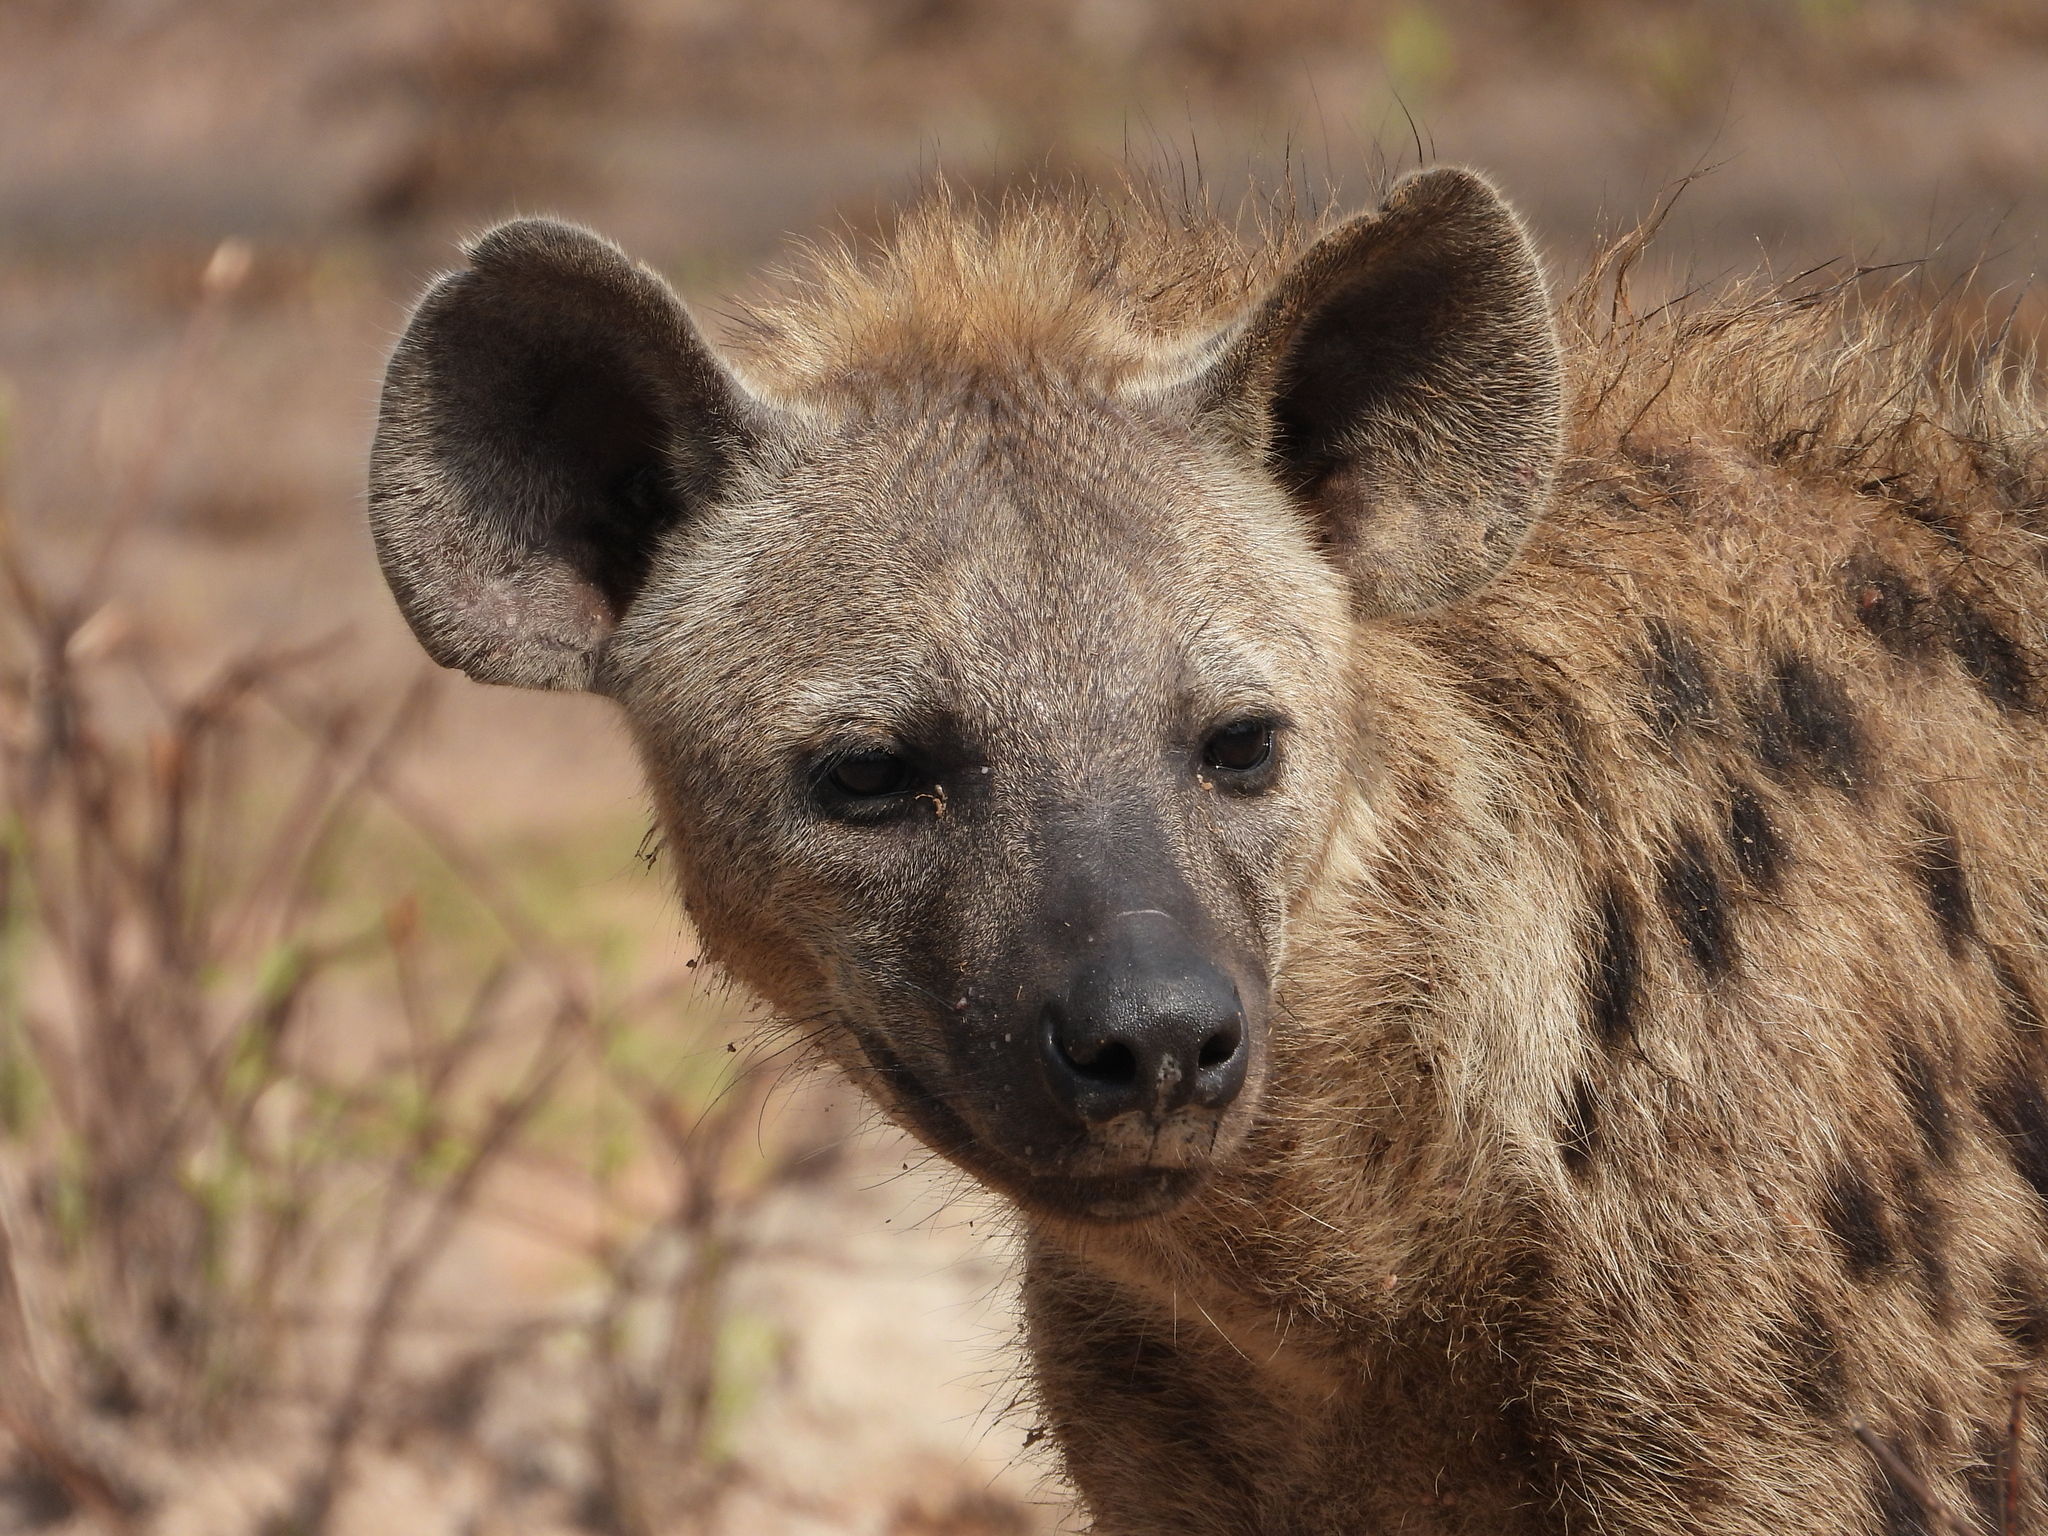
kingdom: Animalia
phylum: Chordata
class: Mammalia
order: Carnivora
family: Hyaenidae
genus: Crocuta
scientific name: Crocuta crocuta
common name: Spotted hyaena
